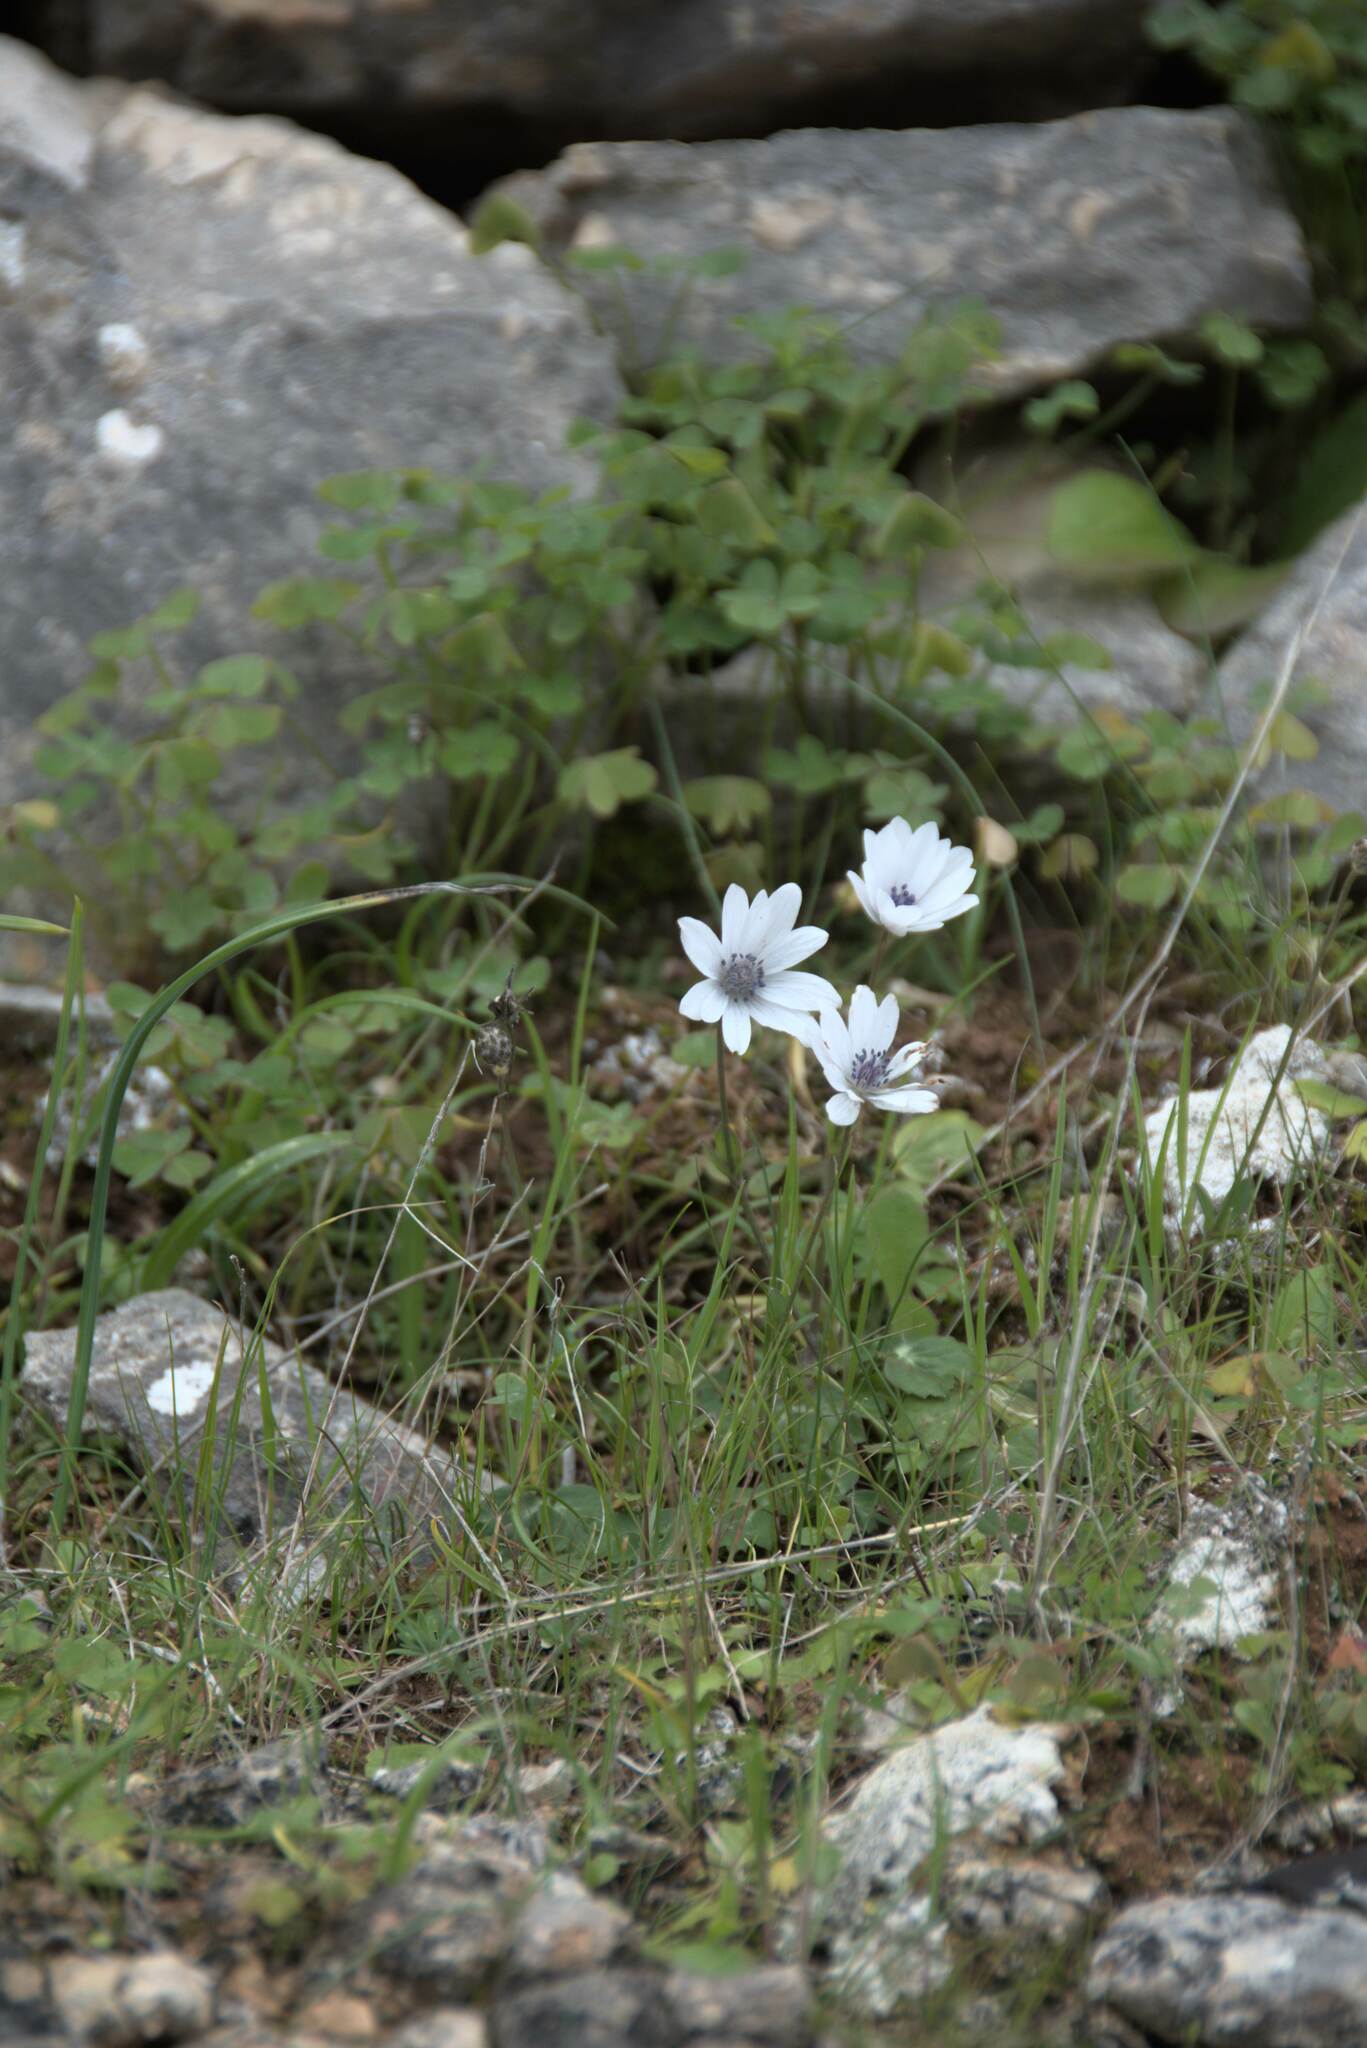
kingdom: Plantae
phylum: Tracheophyta
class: Magnoliopsida
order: Ranunculales
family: Ranunculaceae
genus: Anemone
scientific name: Anemone hortensis
